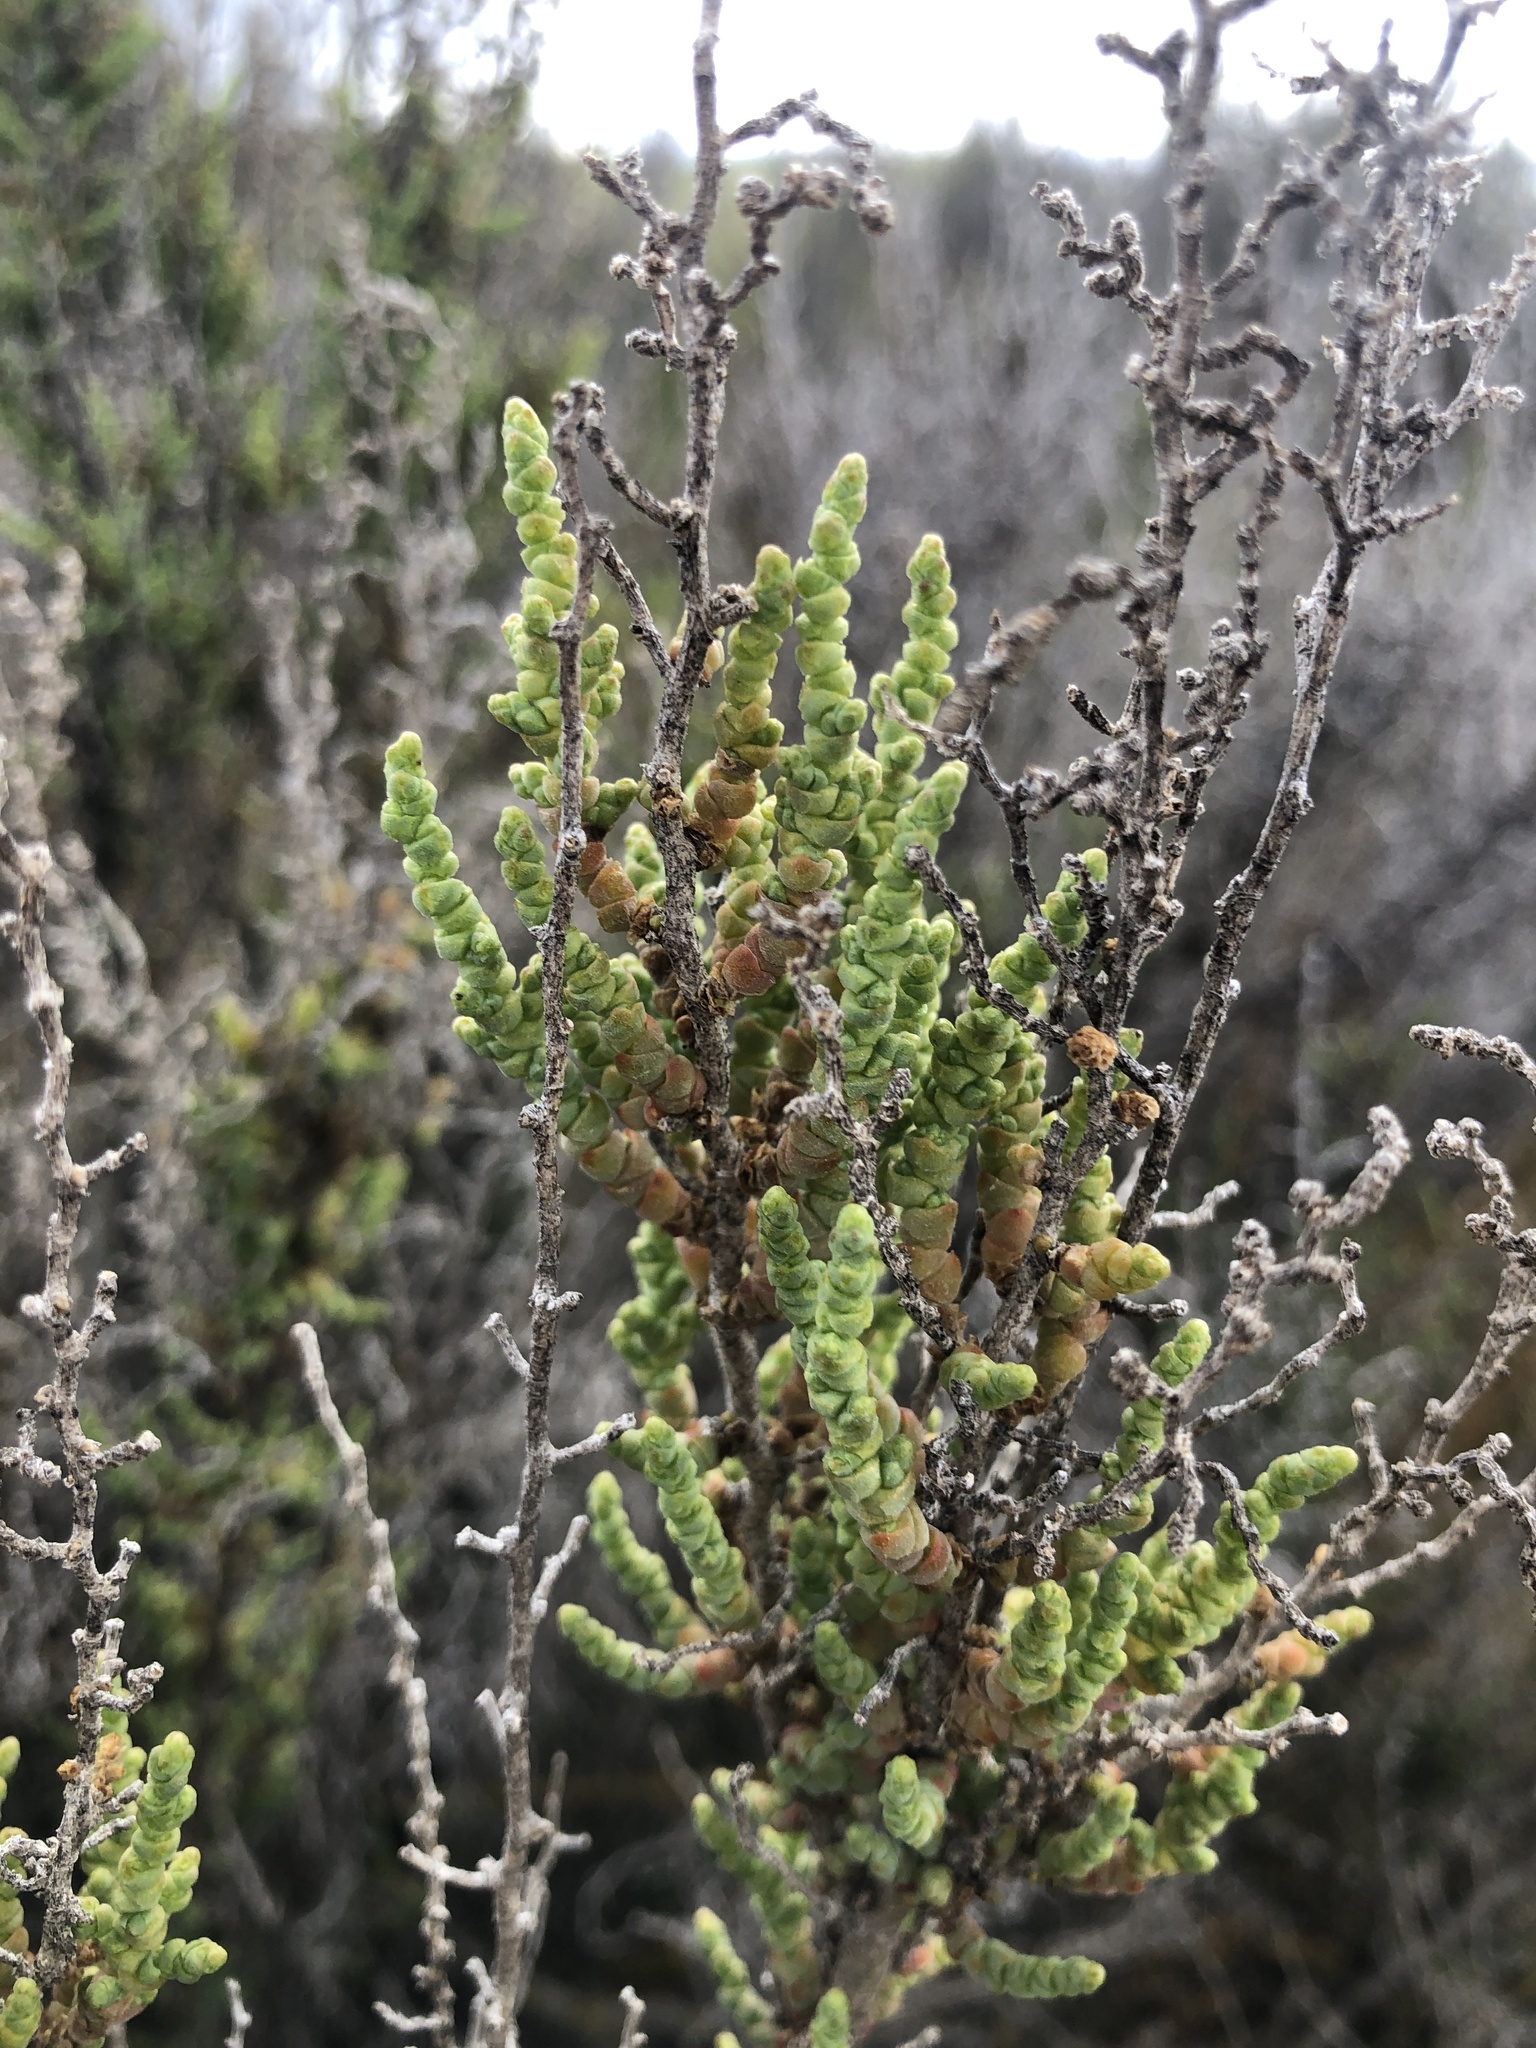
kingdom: Plantae
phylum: Tracheophyta
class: Magnoliopsida
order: Caryophyllales
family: Amaranthaceae
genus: Allenrolfea
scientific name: Allenrolfea occidentalis
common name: Iodine-bush
